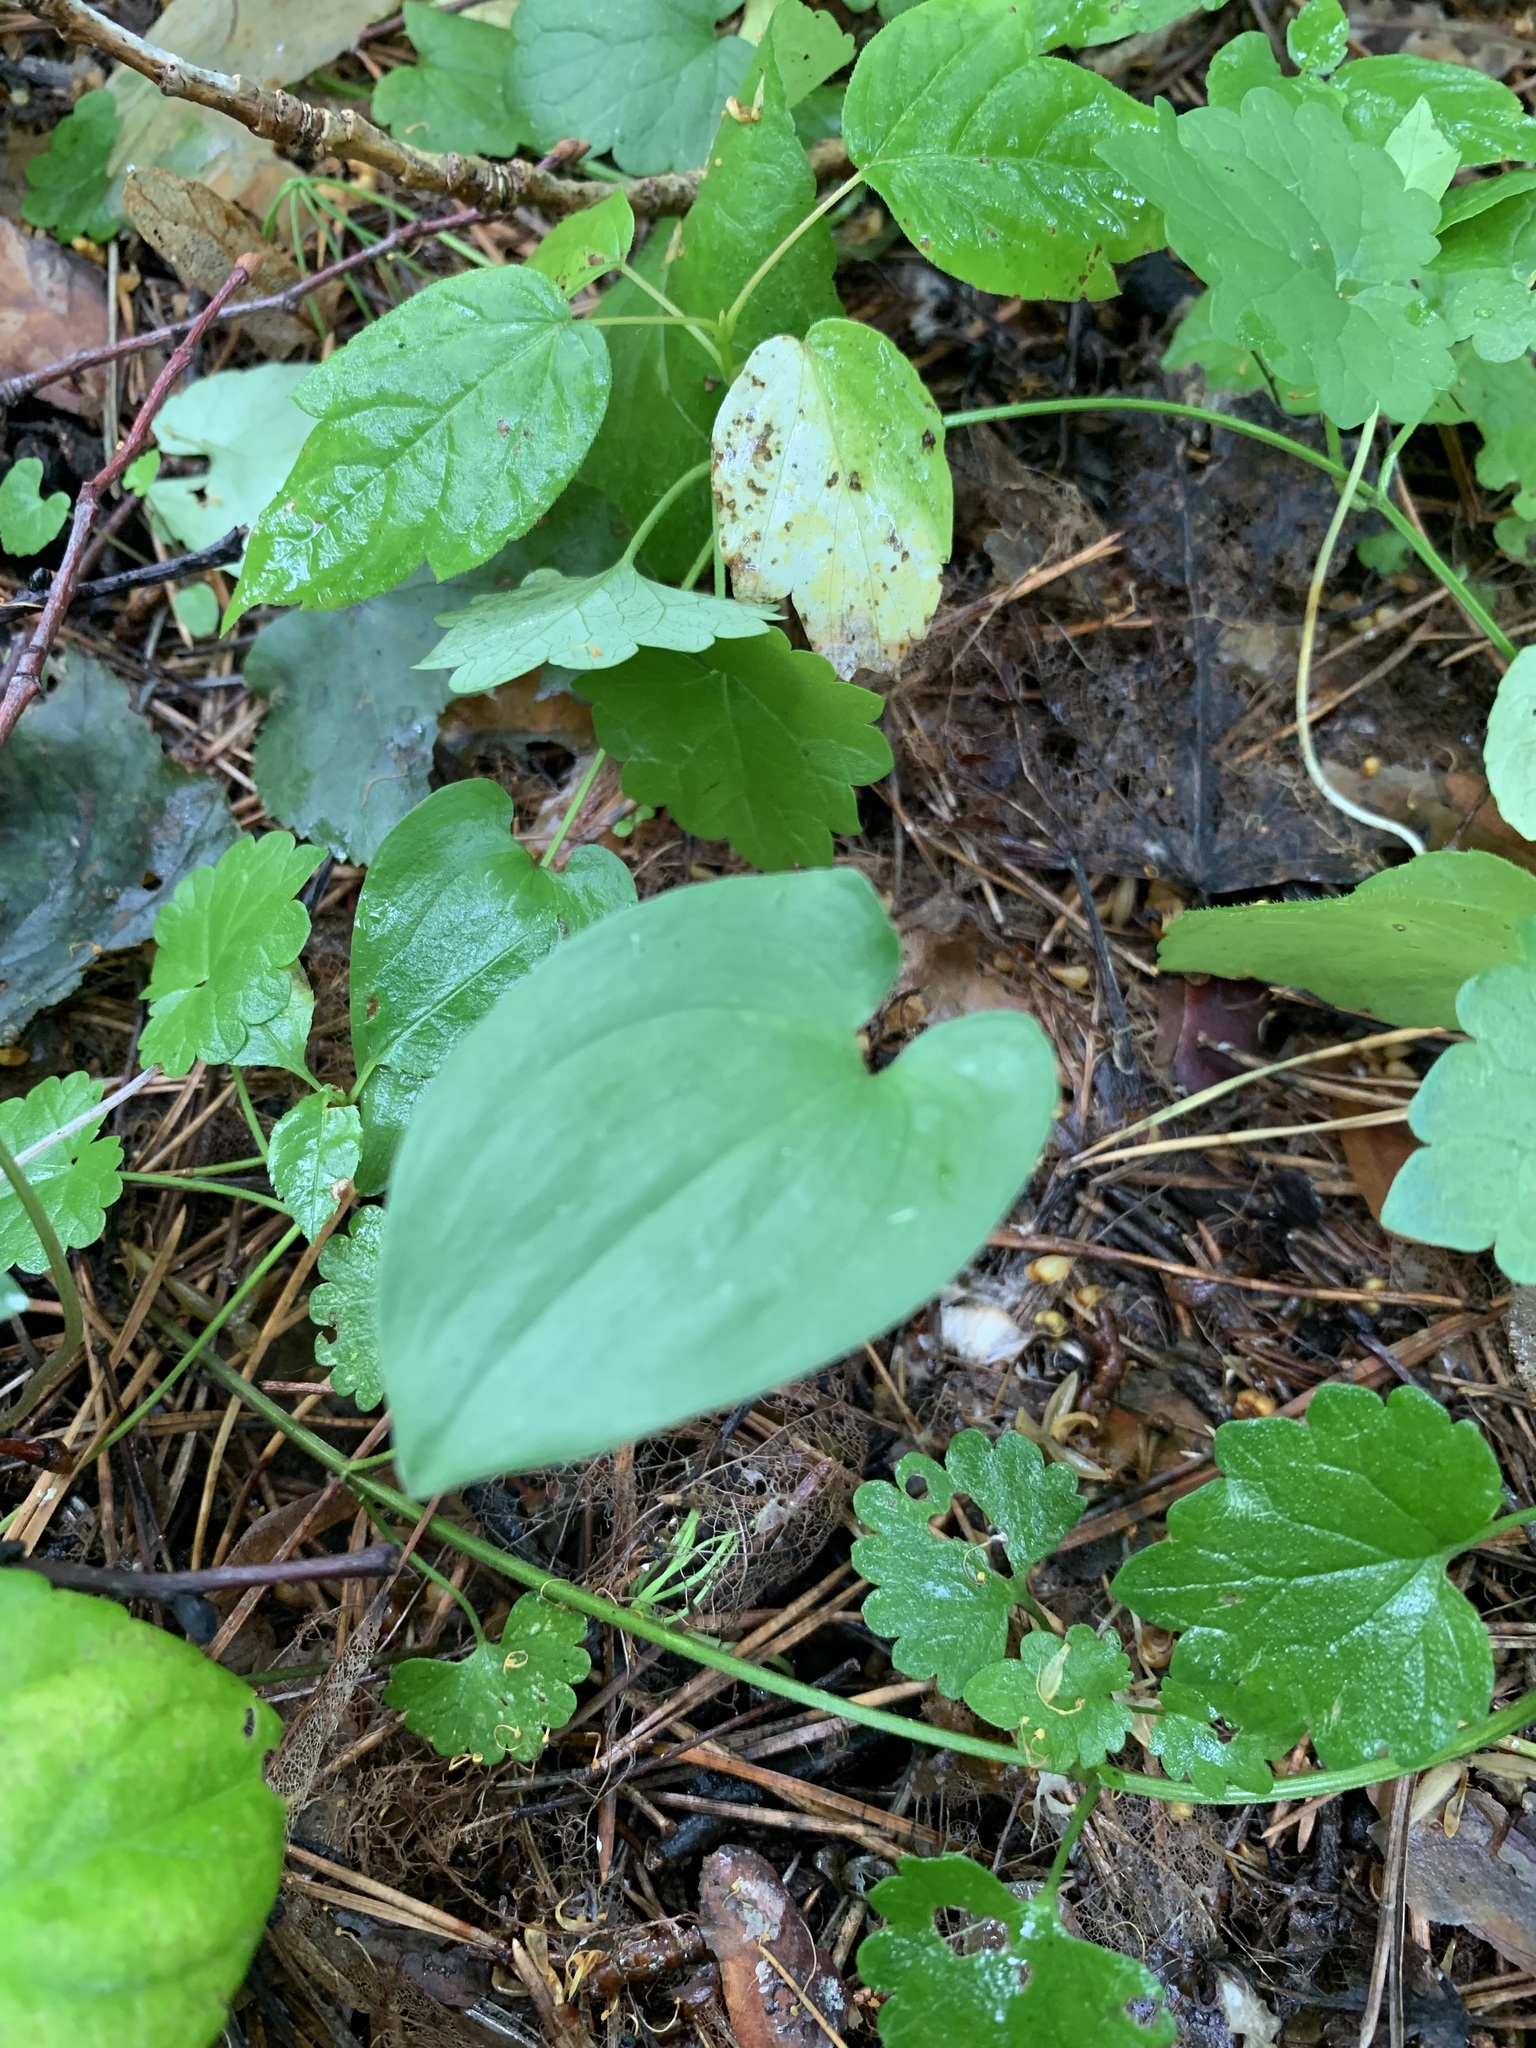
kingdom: Plantae
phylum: Tracheophyta
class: Liliopsida
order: Asparagales
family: Asparagaceae
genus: Maianthemum
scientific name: Maianthemum bifolium
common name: May lily
